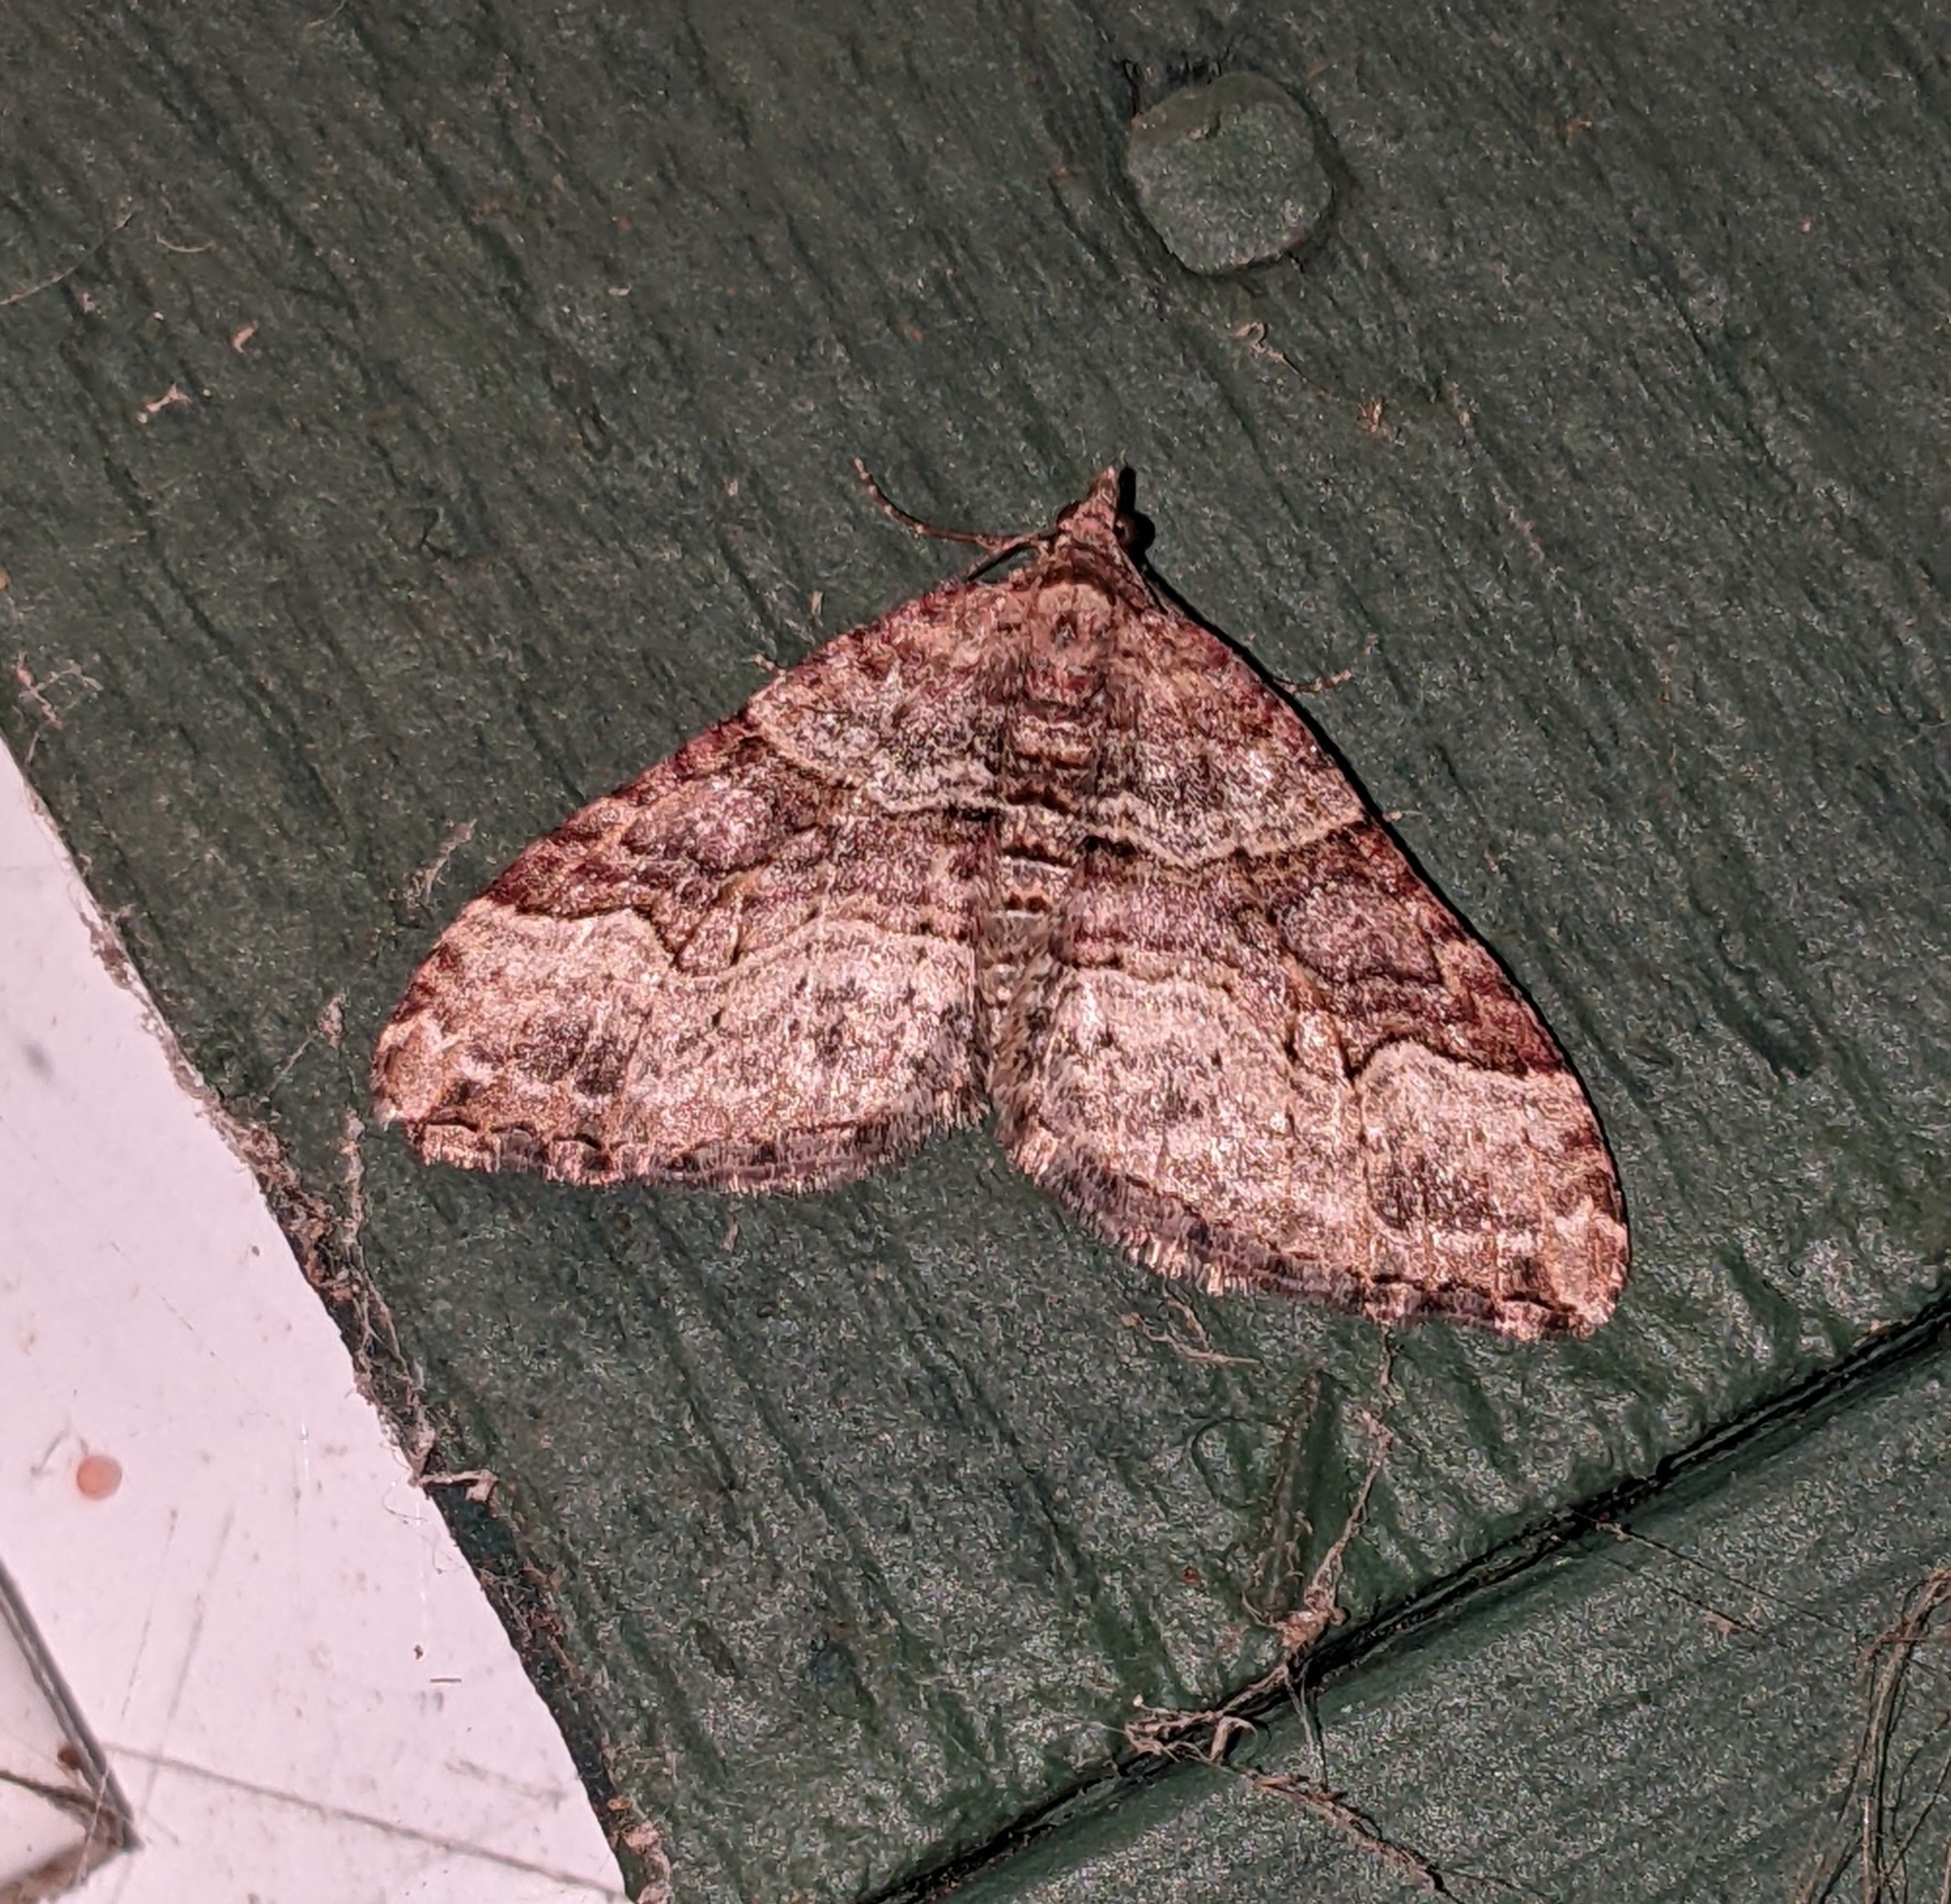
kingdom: Animalia
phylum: Arthropoda
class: Insecta
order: Lepidoptera
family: Geometridae
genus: Xanthorhoe
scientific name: Xanthorhoe defensaria
